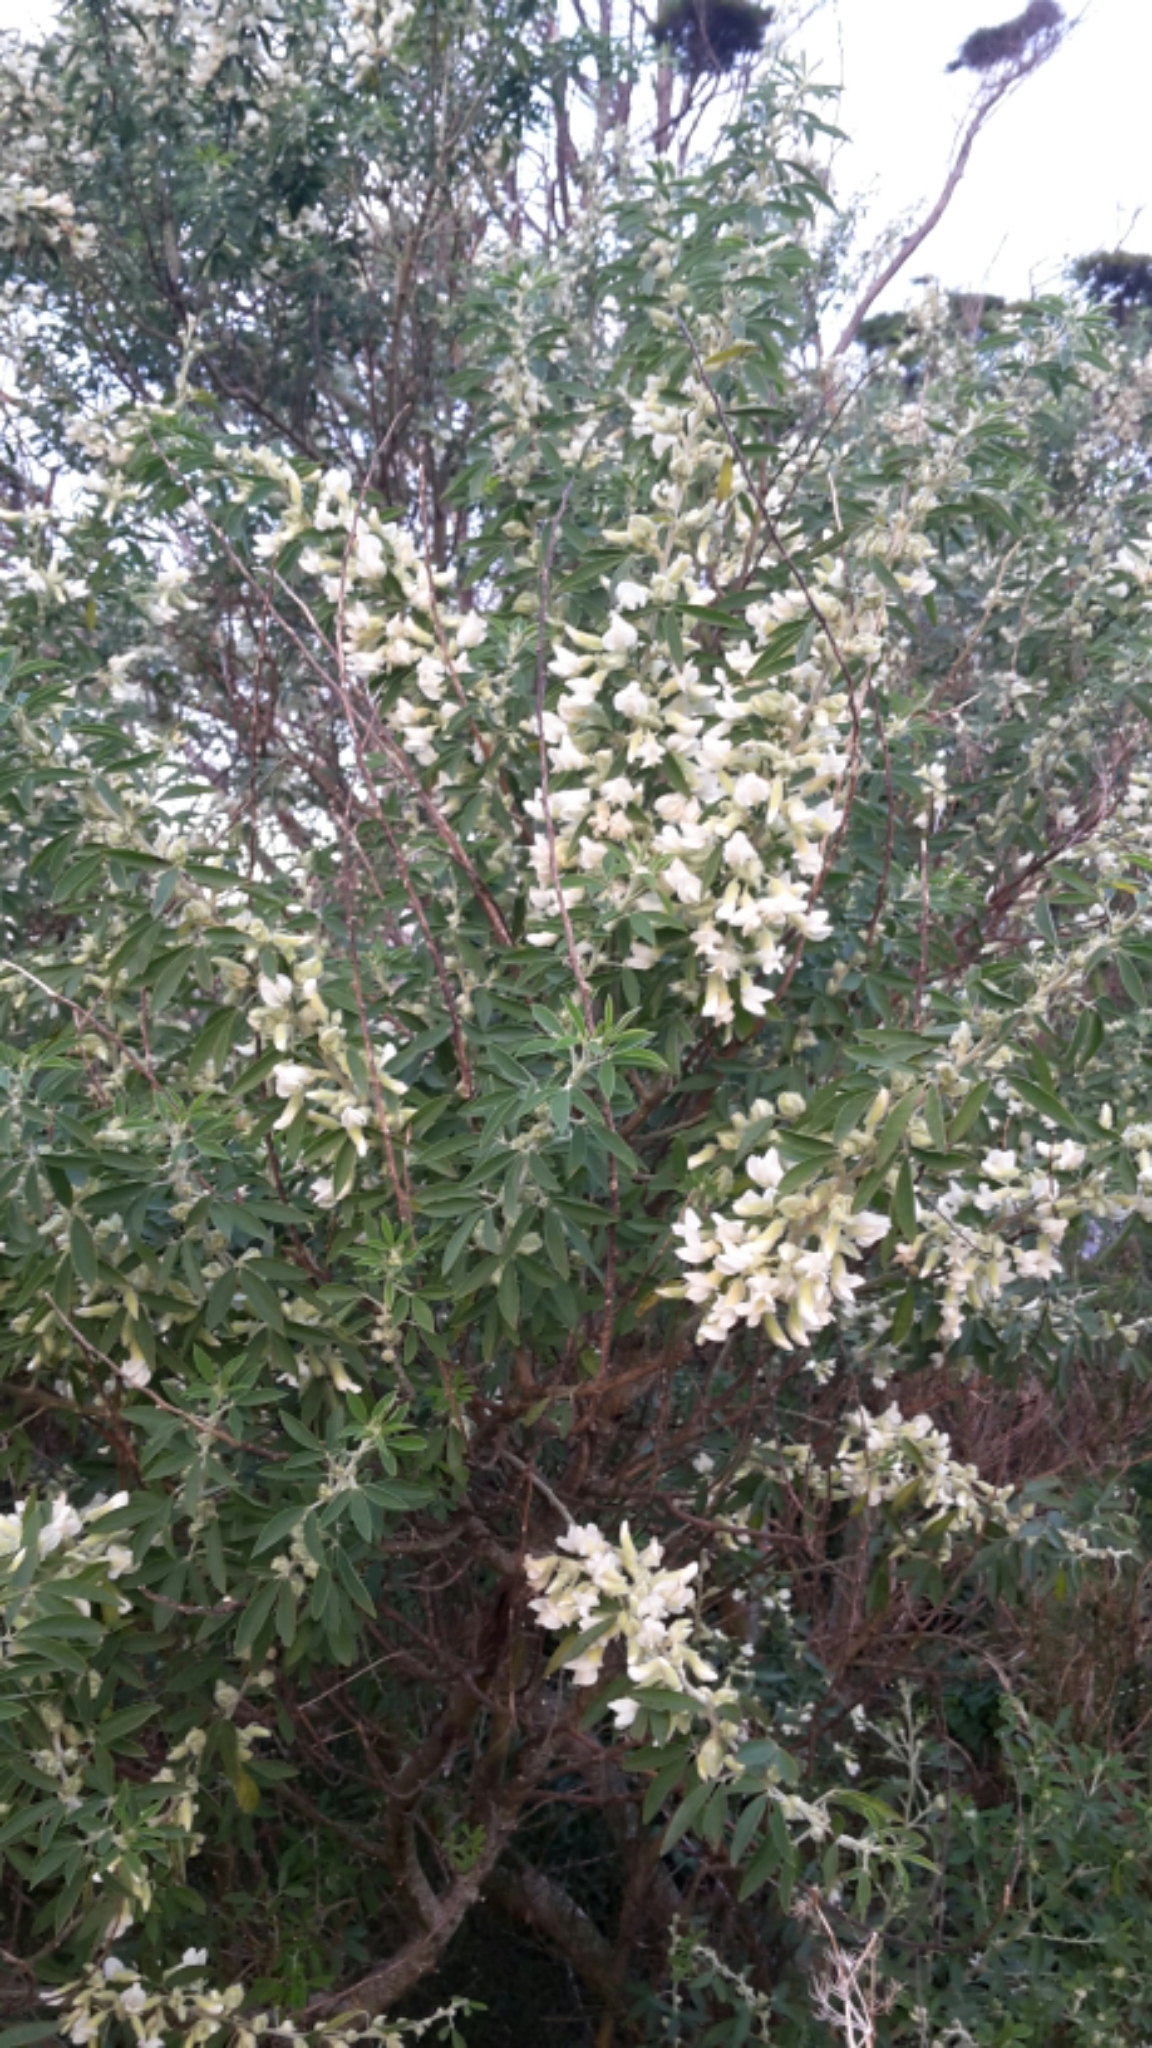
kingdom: Plantae
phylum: Tracheophyta
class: Magnoliopsida
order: Fabales
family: Fabaceae
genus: Chamaecytisus
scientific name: Chamaecytisus prolifer
